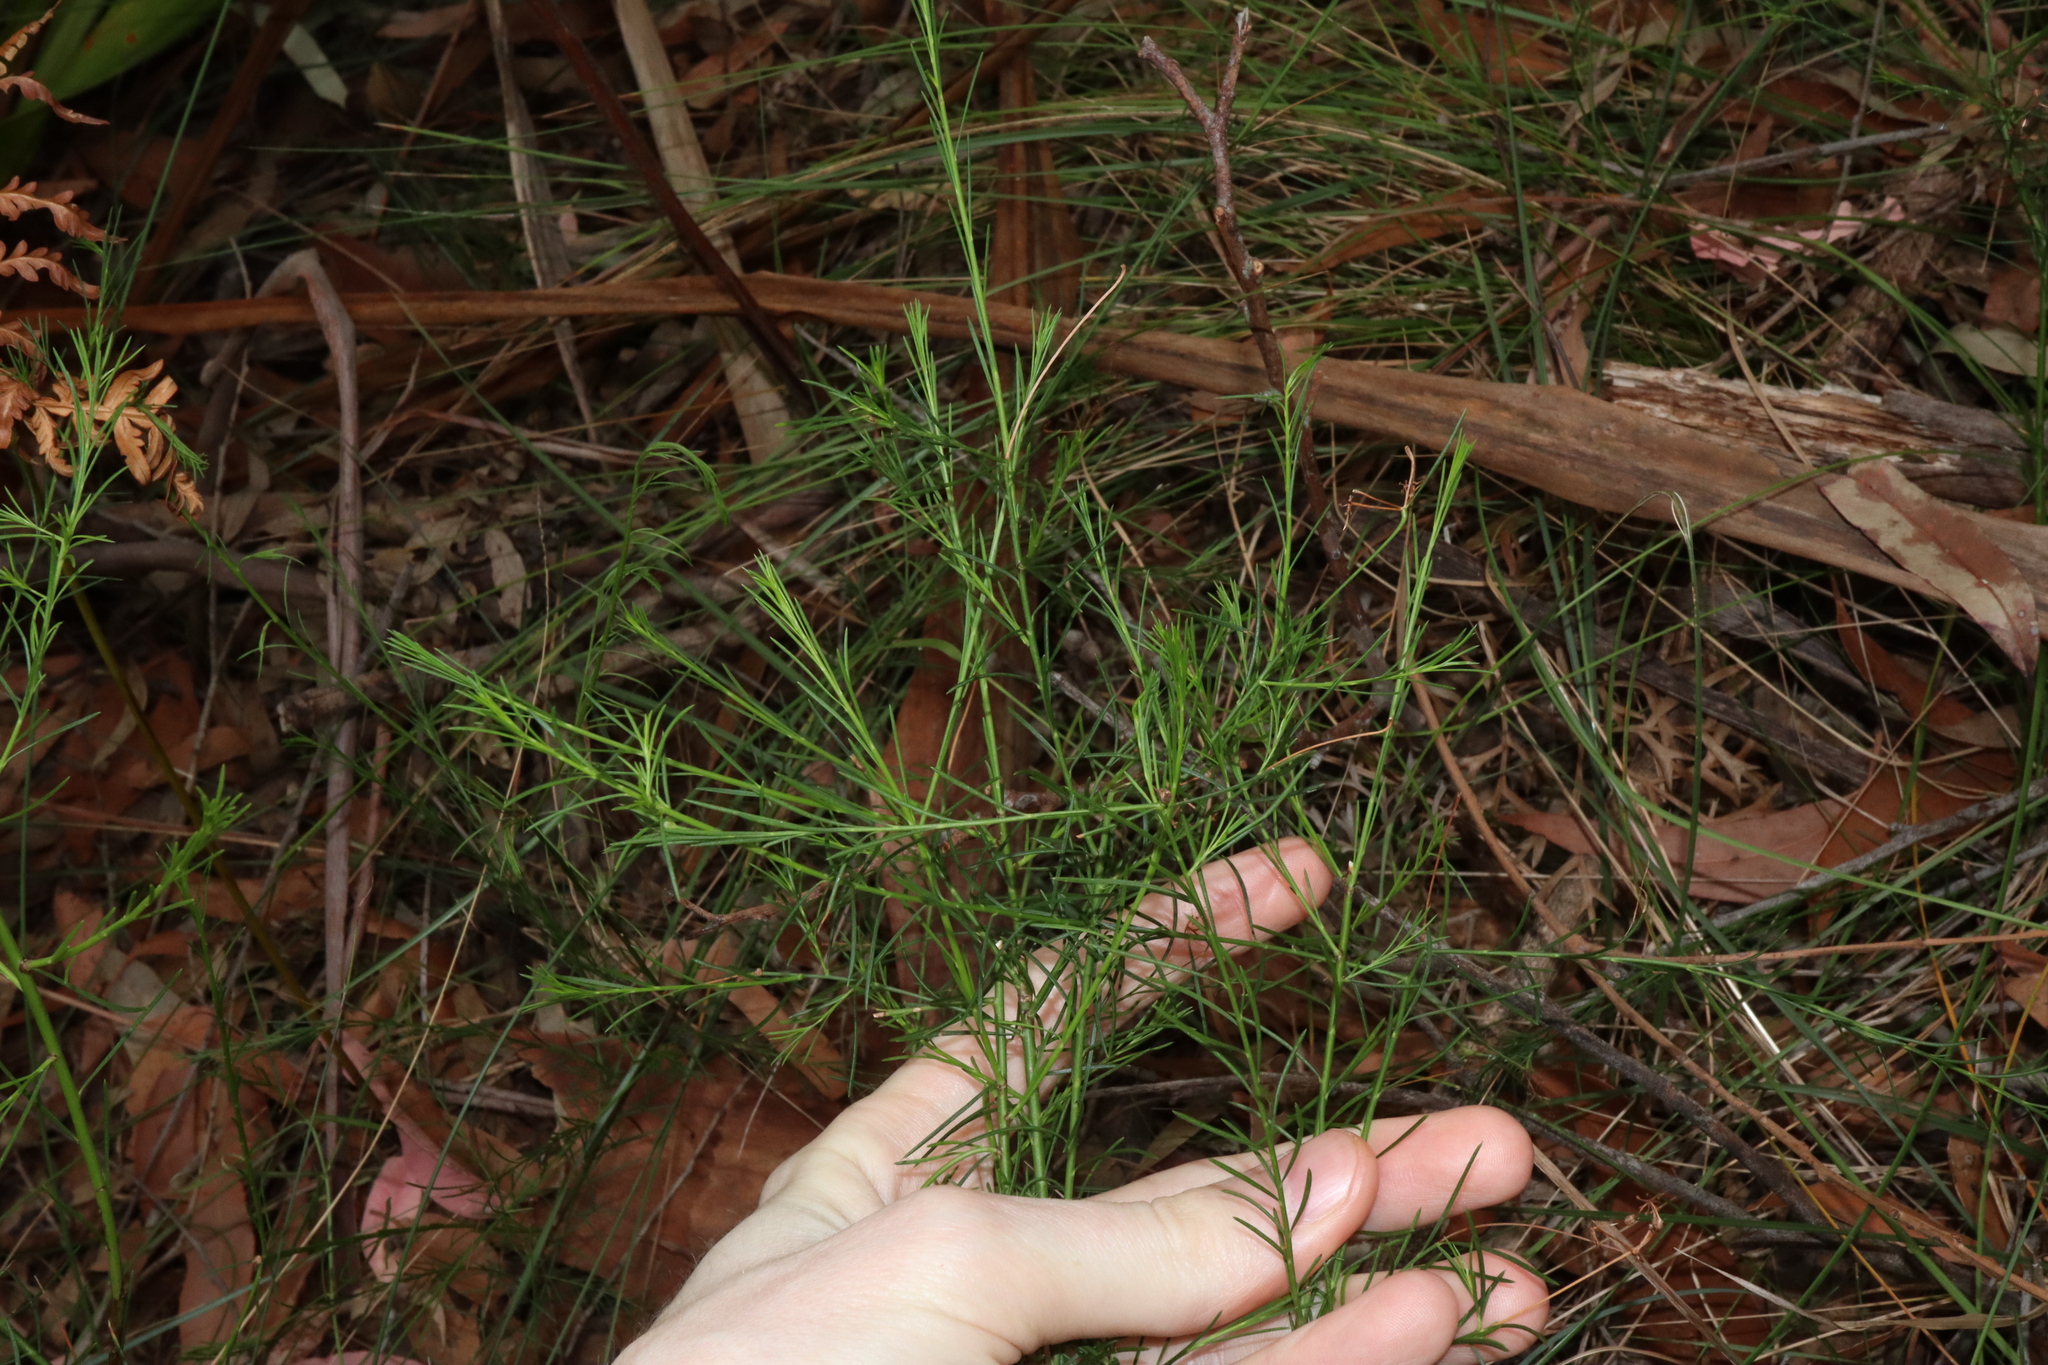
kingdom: Plantae
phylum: Tracheophyta
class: Magnoliopsida
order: Apiales
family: Apiaceae
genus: Platysace
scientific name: Platysace linearifolia
